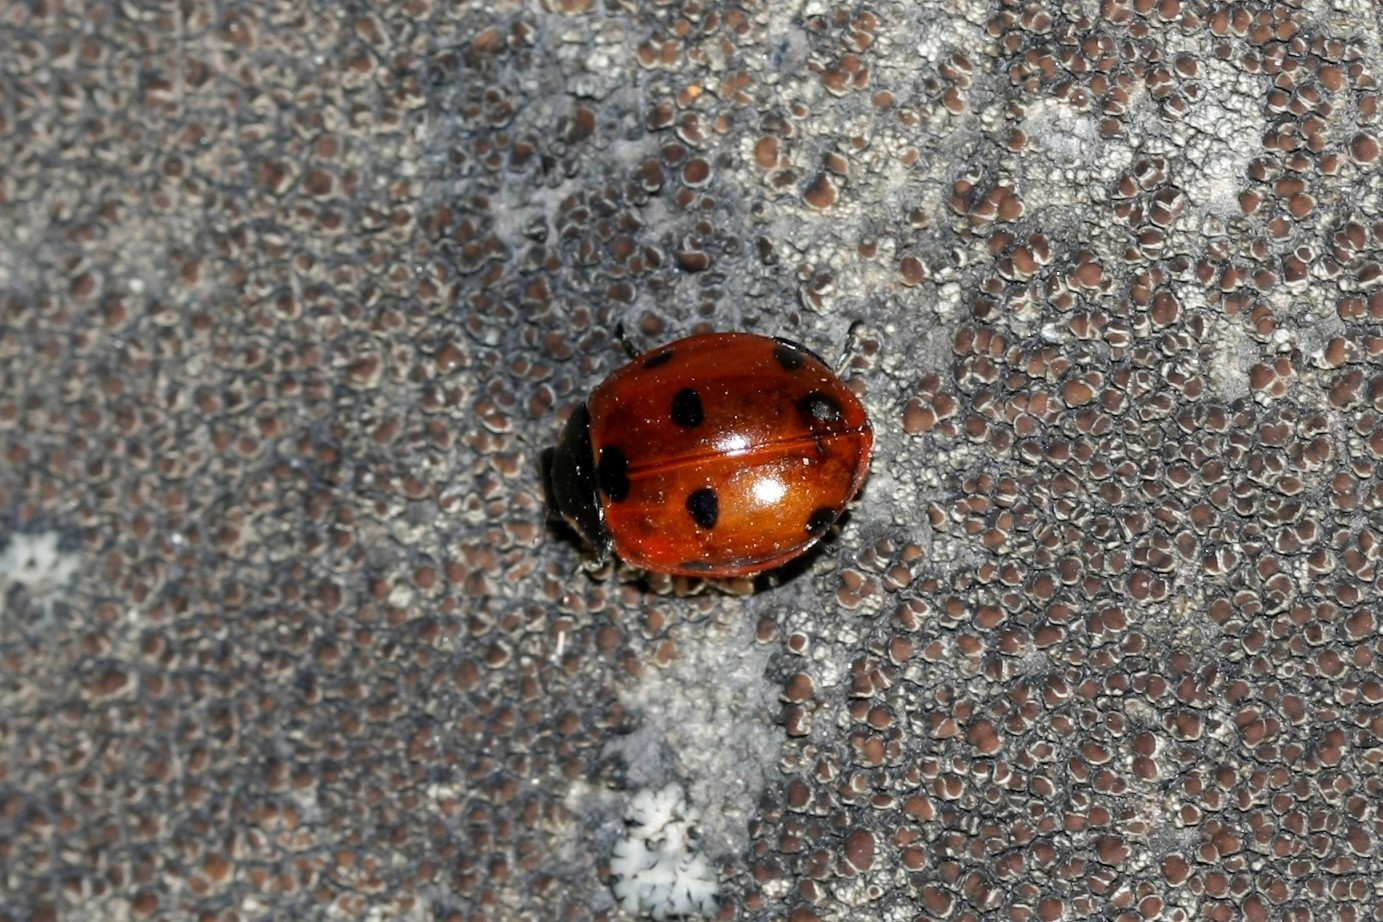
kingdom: Animalia
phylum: Arthropoda
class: Insecta
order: Coleoptera
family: Coccinellidae
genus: Coccinella
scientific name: Coccinella septempunctata
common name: Sevenspotted lady beetle
